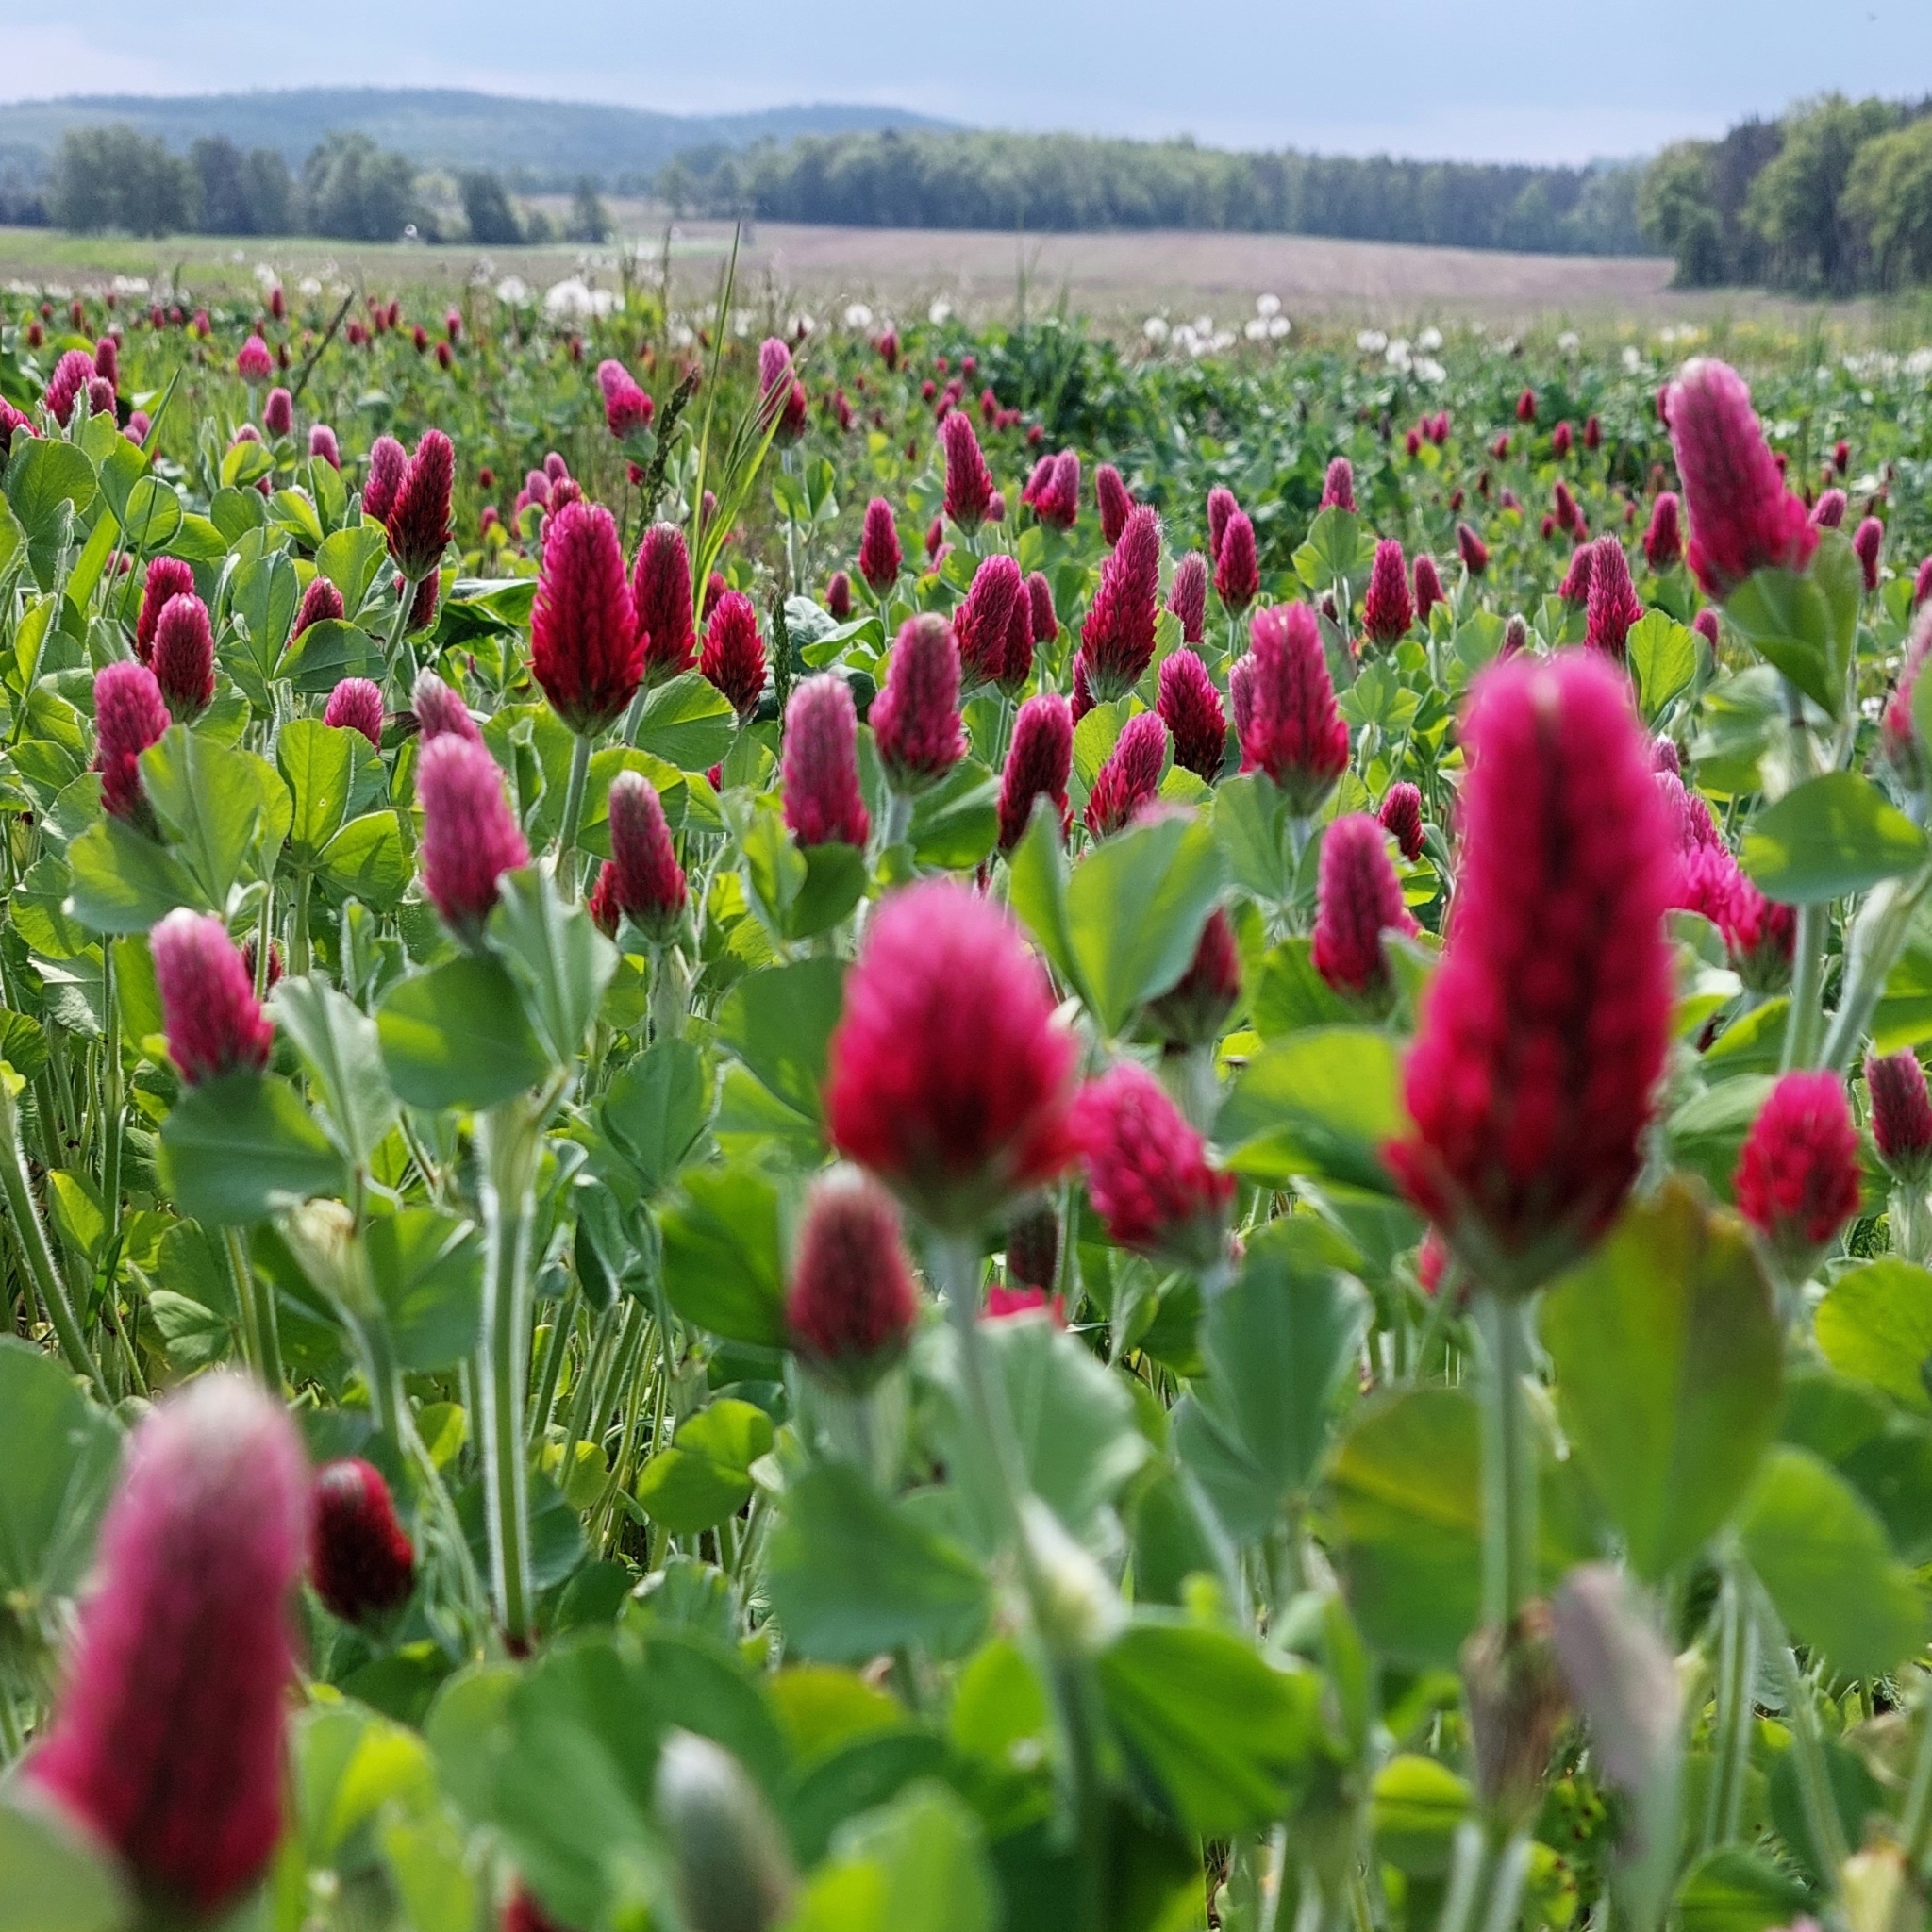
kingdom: Plantae
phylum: Tracheophyta
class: Magnoliopsida
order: Fabales
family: Fabaceae
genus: Trifolium
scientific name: Trifolium incarnatum
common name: Crimson clover
